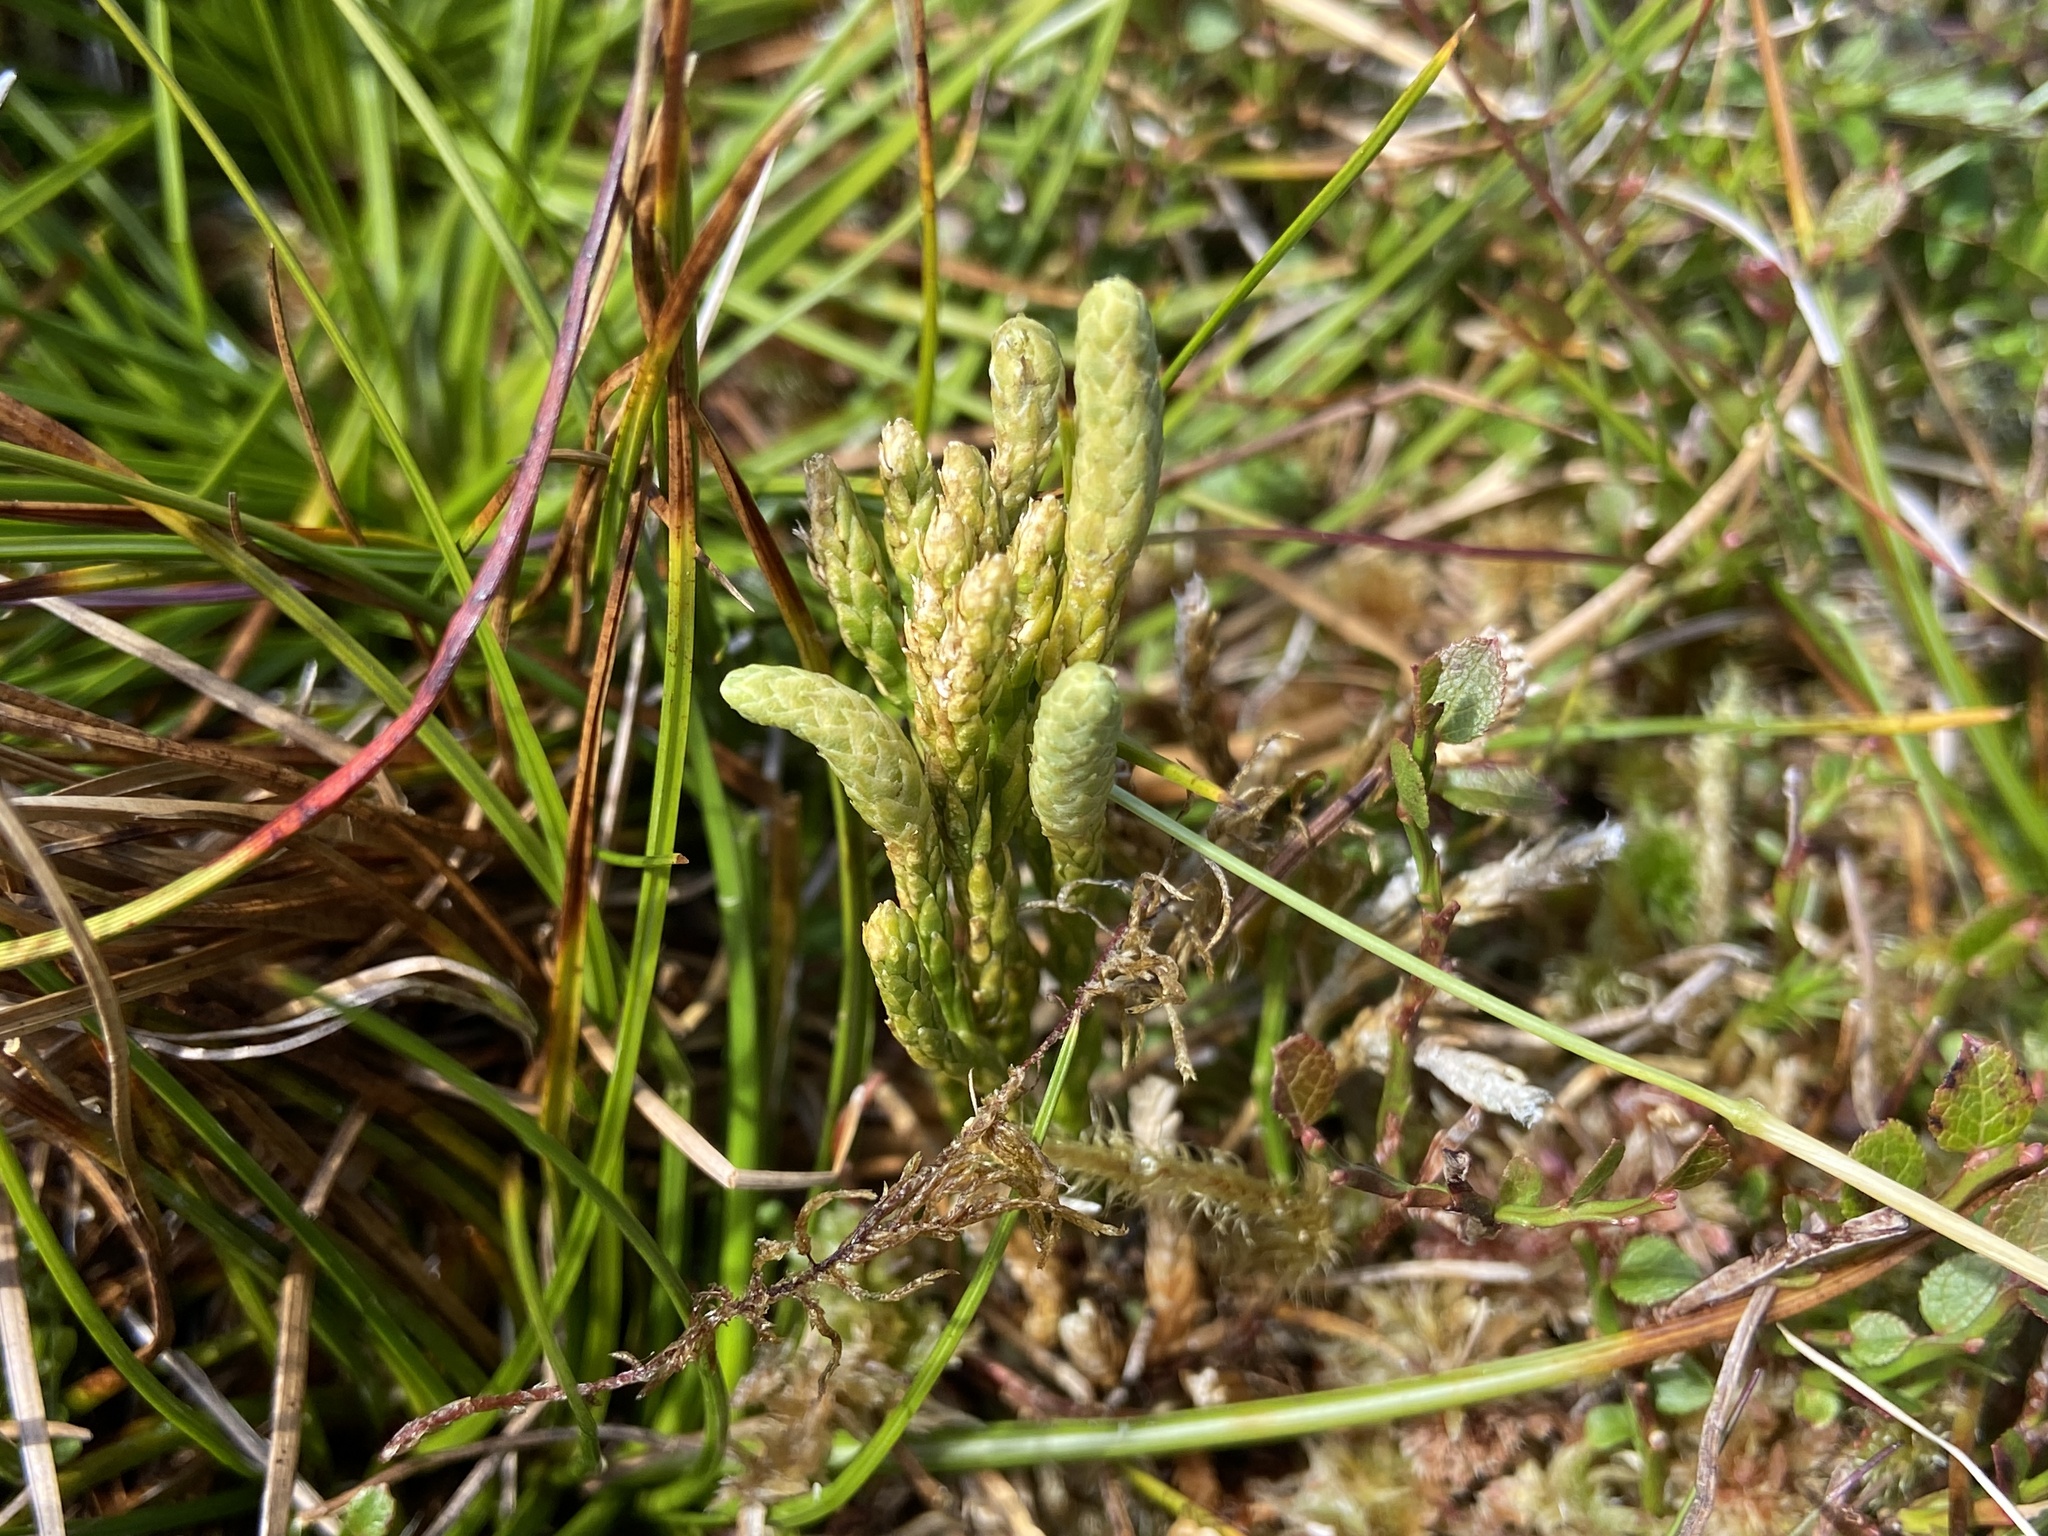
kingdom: Plantae
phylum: Tracheophyta
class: Lycopodiopsida
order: Lycopodiales
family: Lycopodiaceae
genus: Diphasiastrum
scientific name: Diphasiastrum alpinum
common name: Alpine clubmoss
